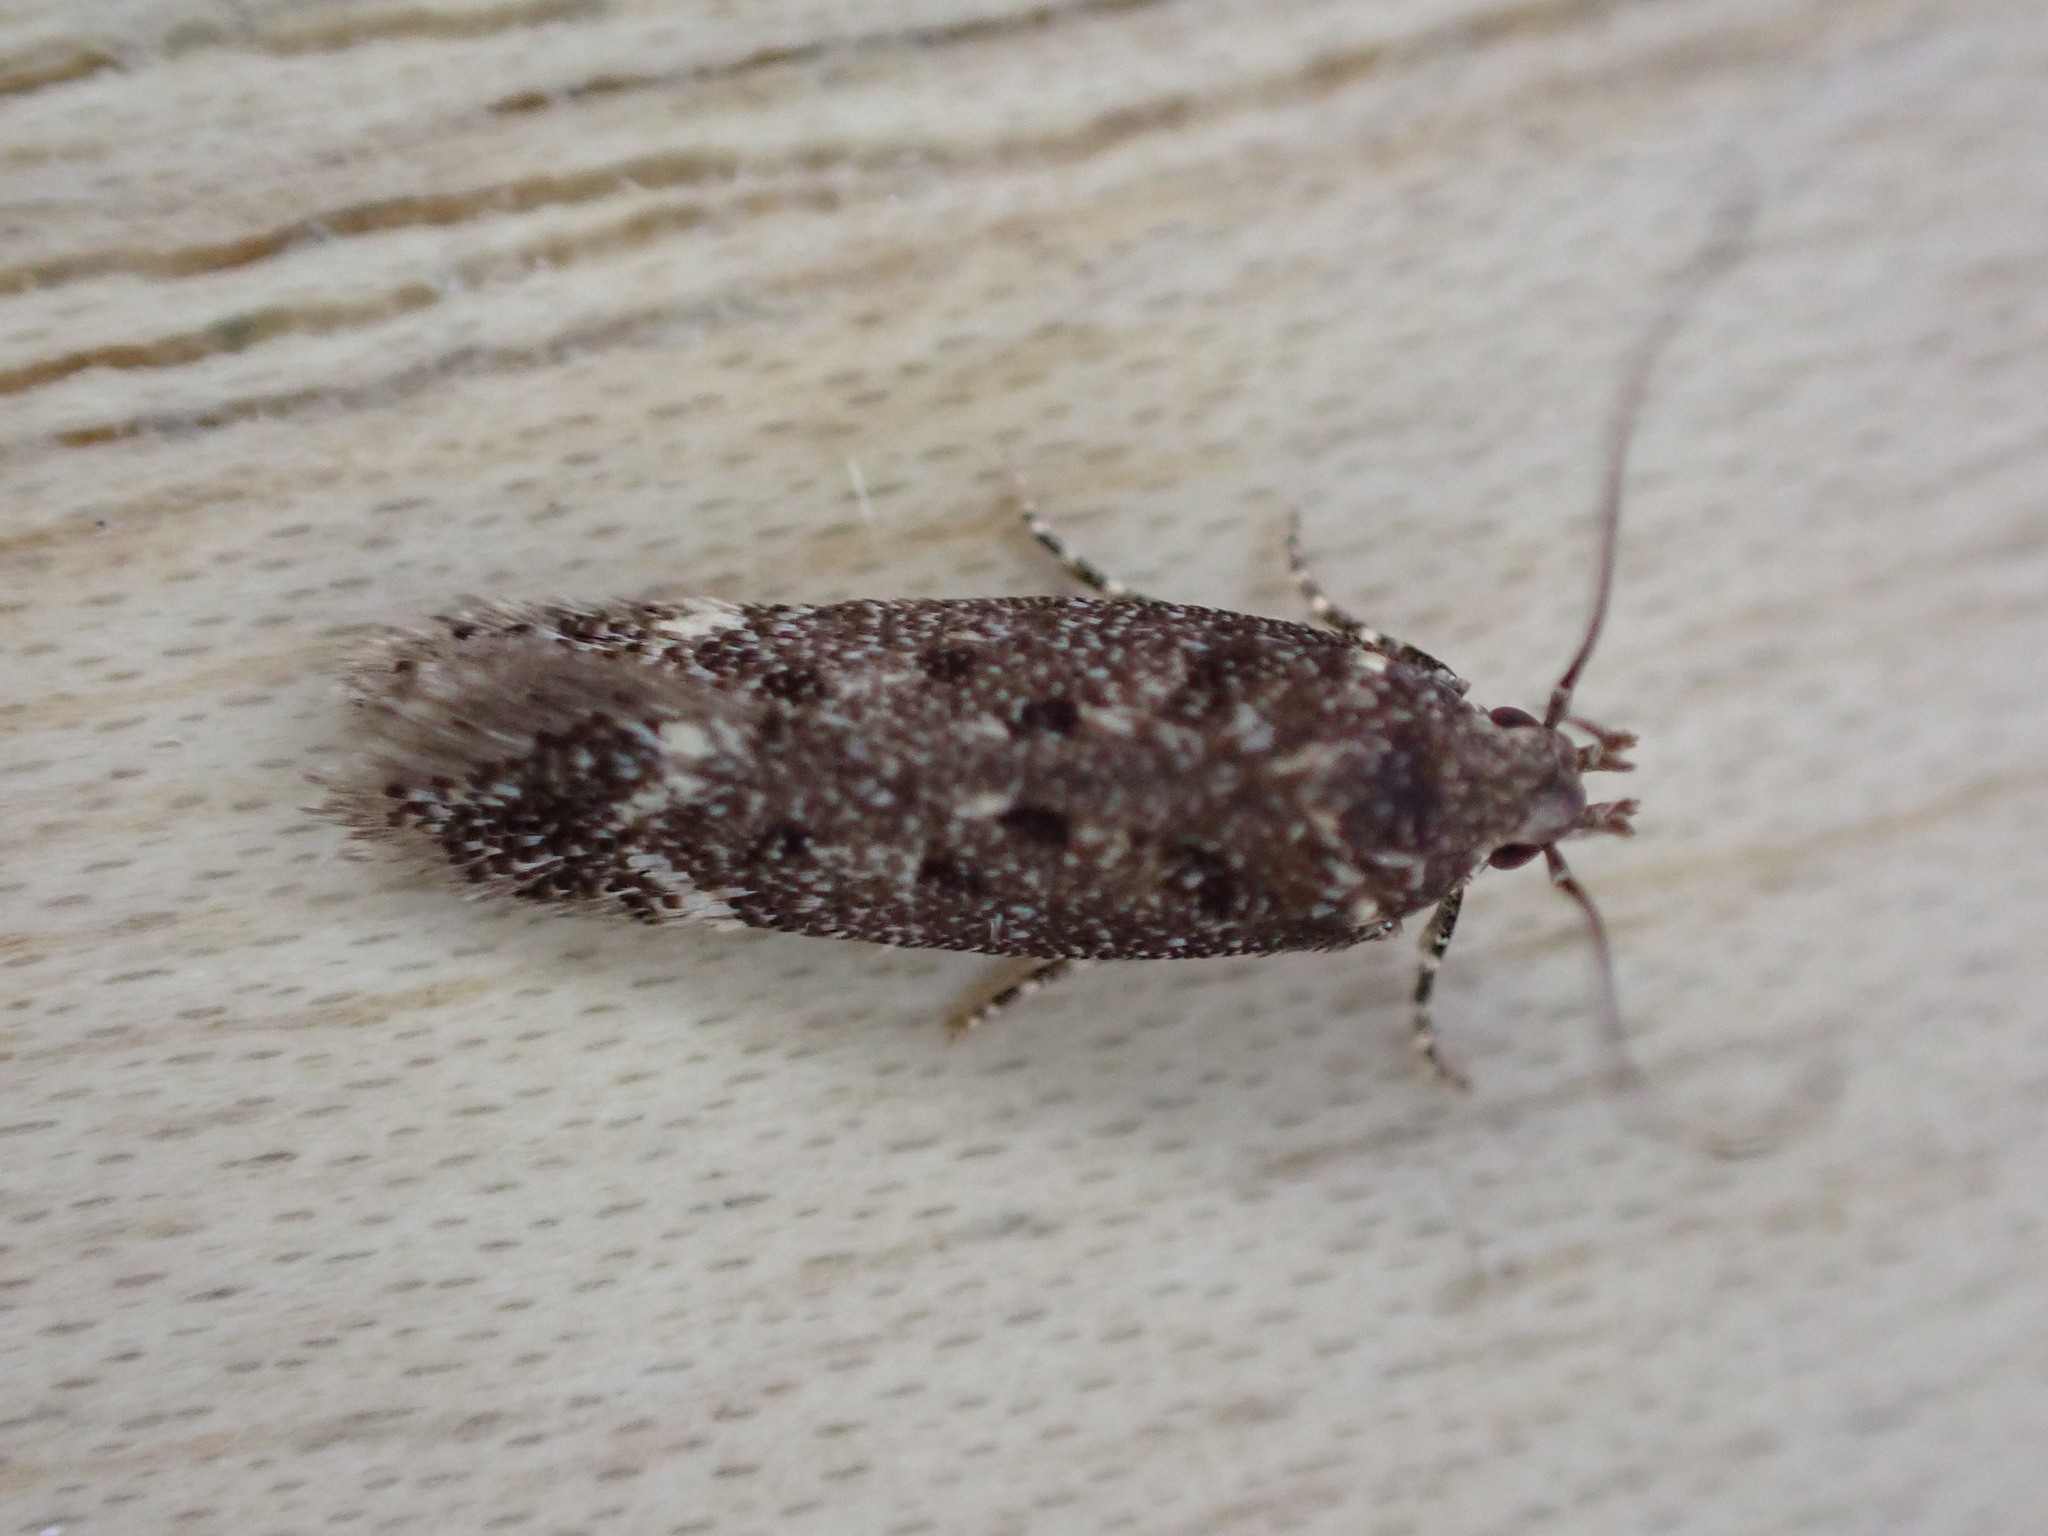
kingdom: Animalia
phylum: Arthropoda
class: Insecta
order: Lepidoptera
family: Gelechiidae
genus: Bryotropha
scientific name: Bryotropha affinis
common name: Dark groundling
